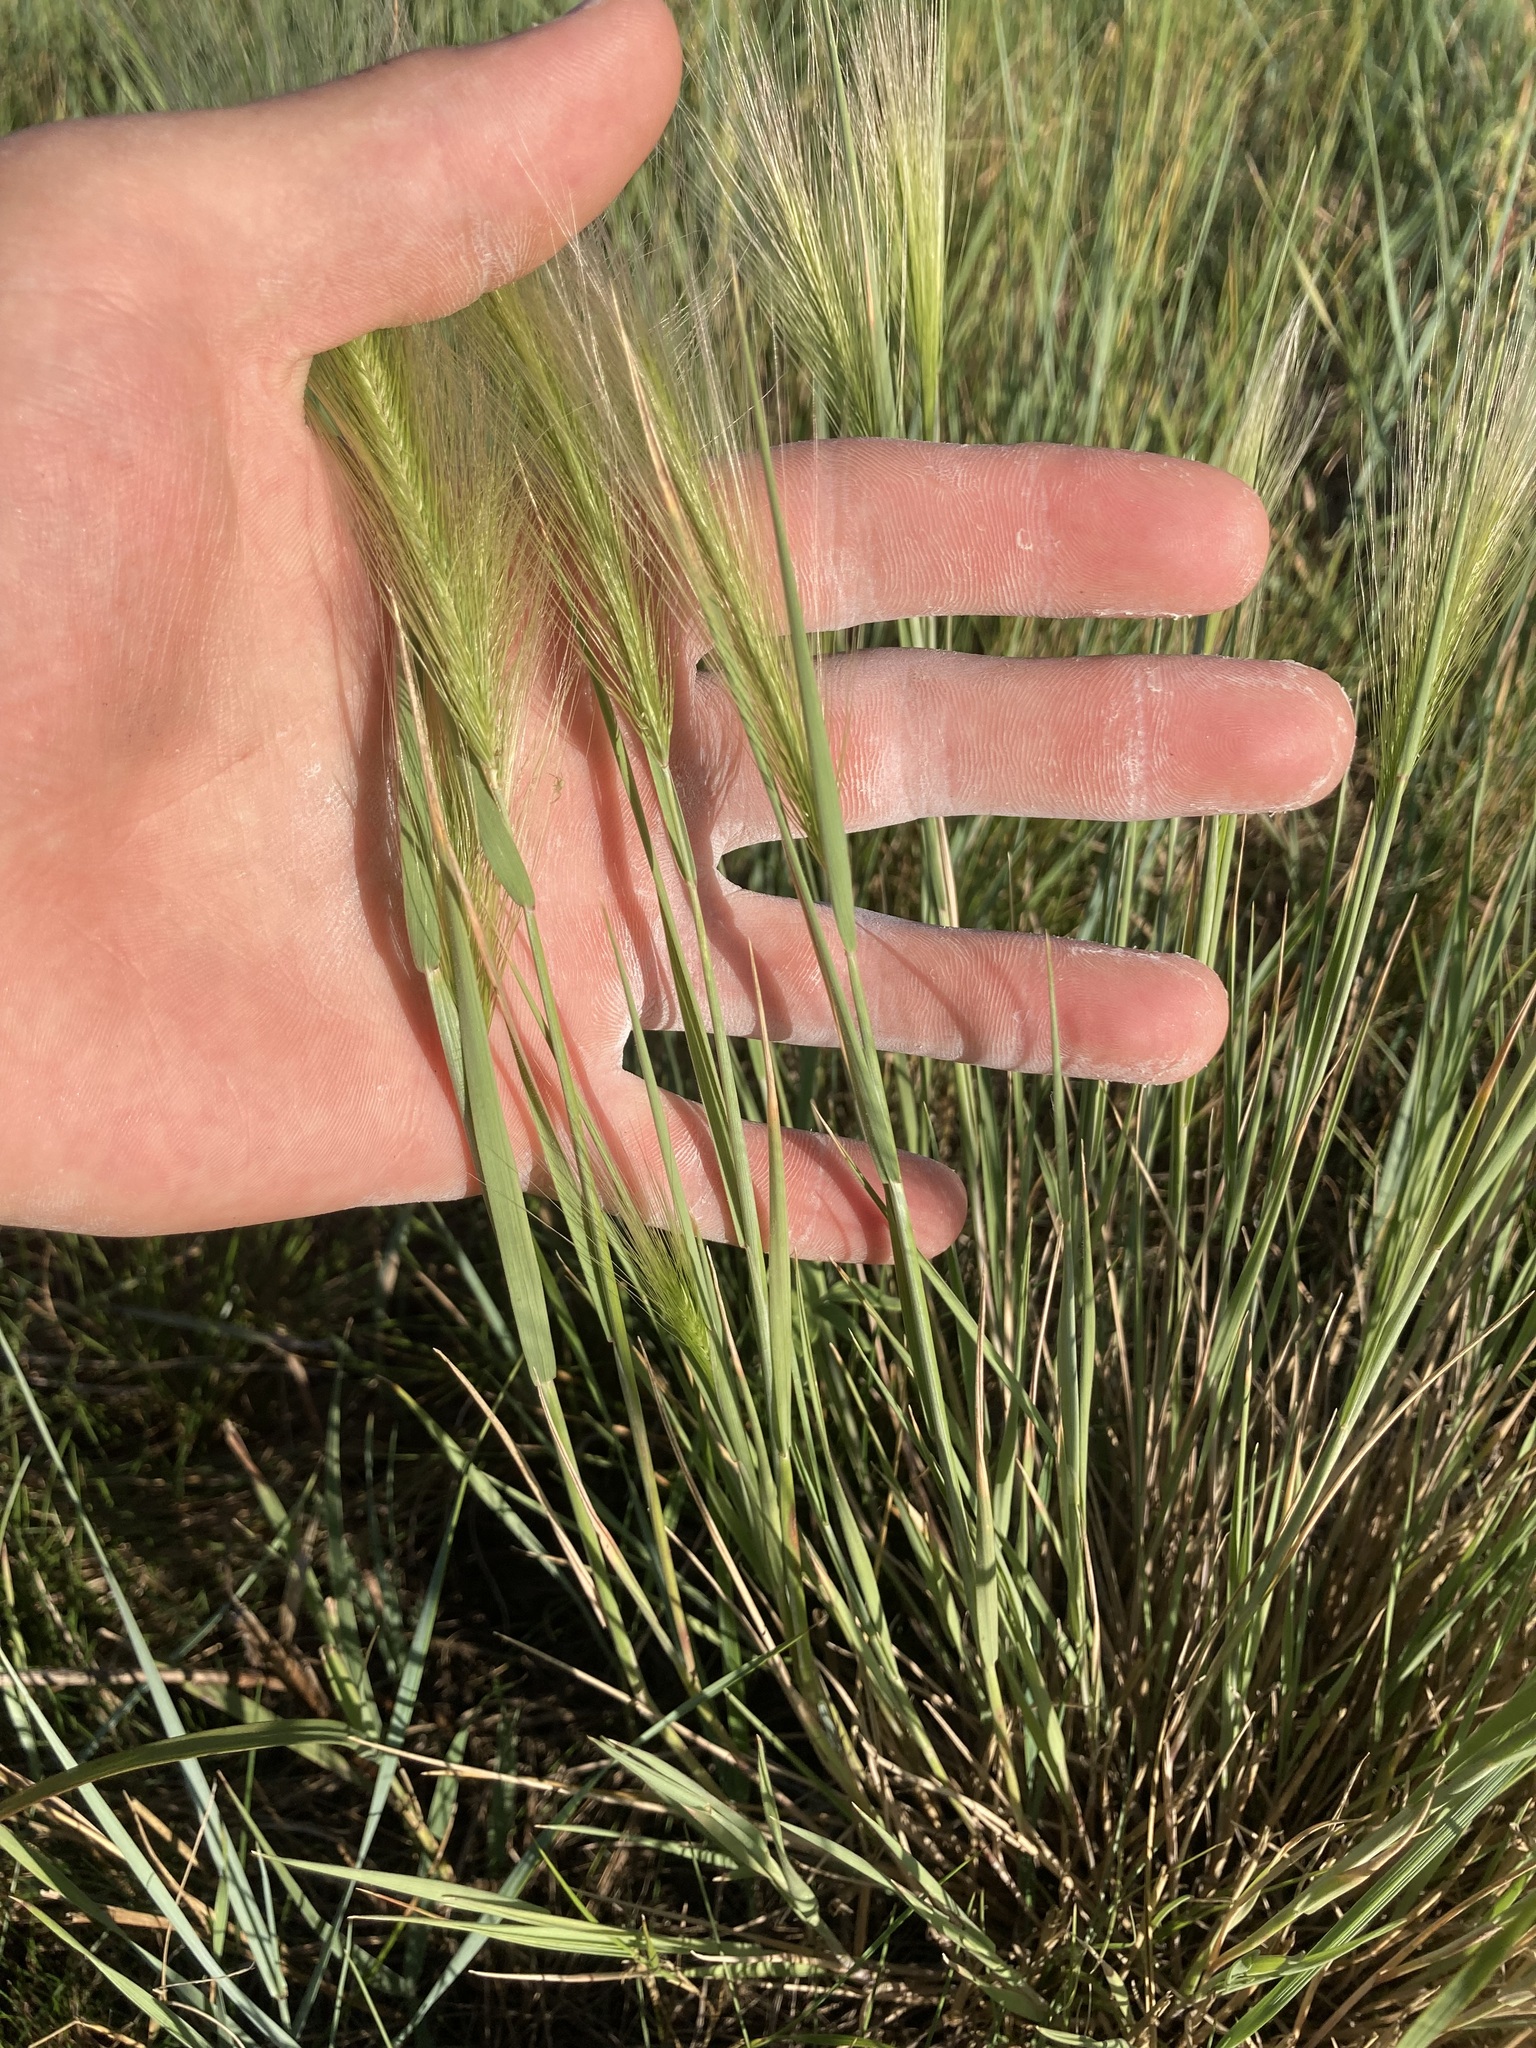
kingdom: Plantae
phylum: Tracheophyta
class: Liliopsida
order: Poales
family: Poaceae
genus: Hordeum
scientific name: Hordeum jubatum
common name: Foxtail barley
